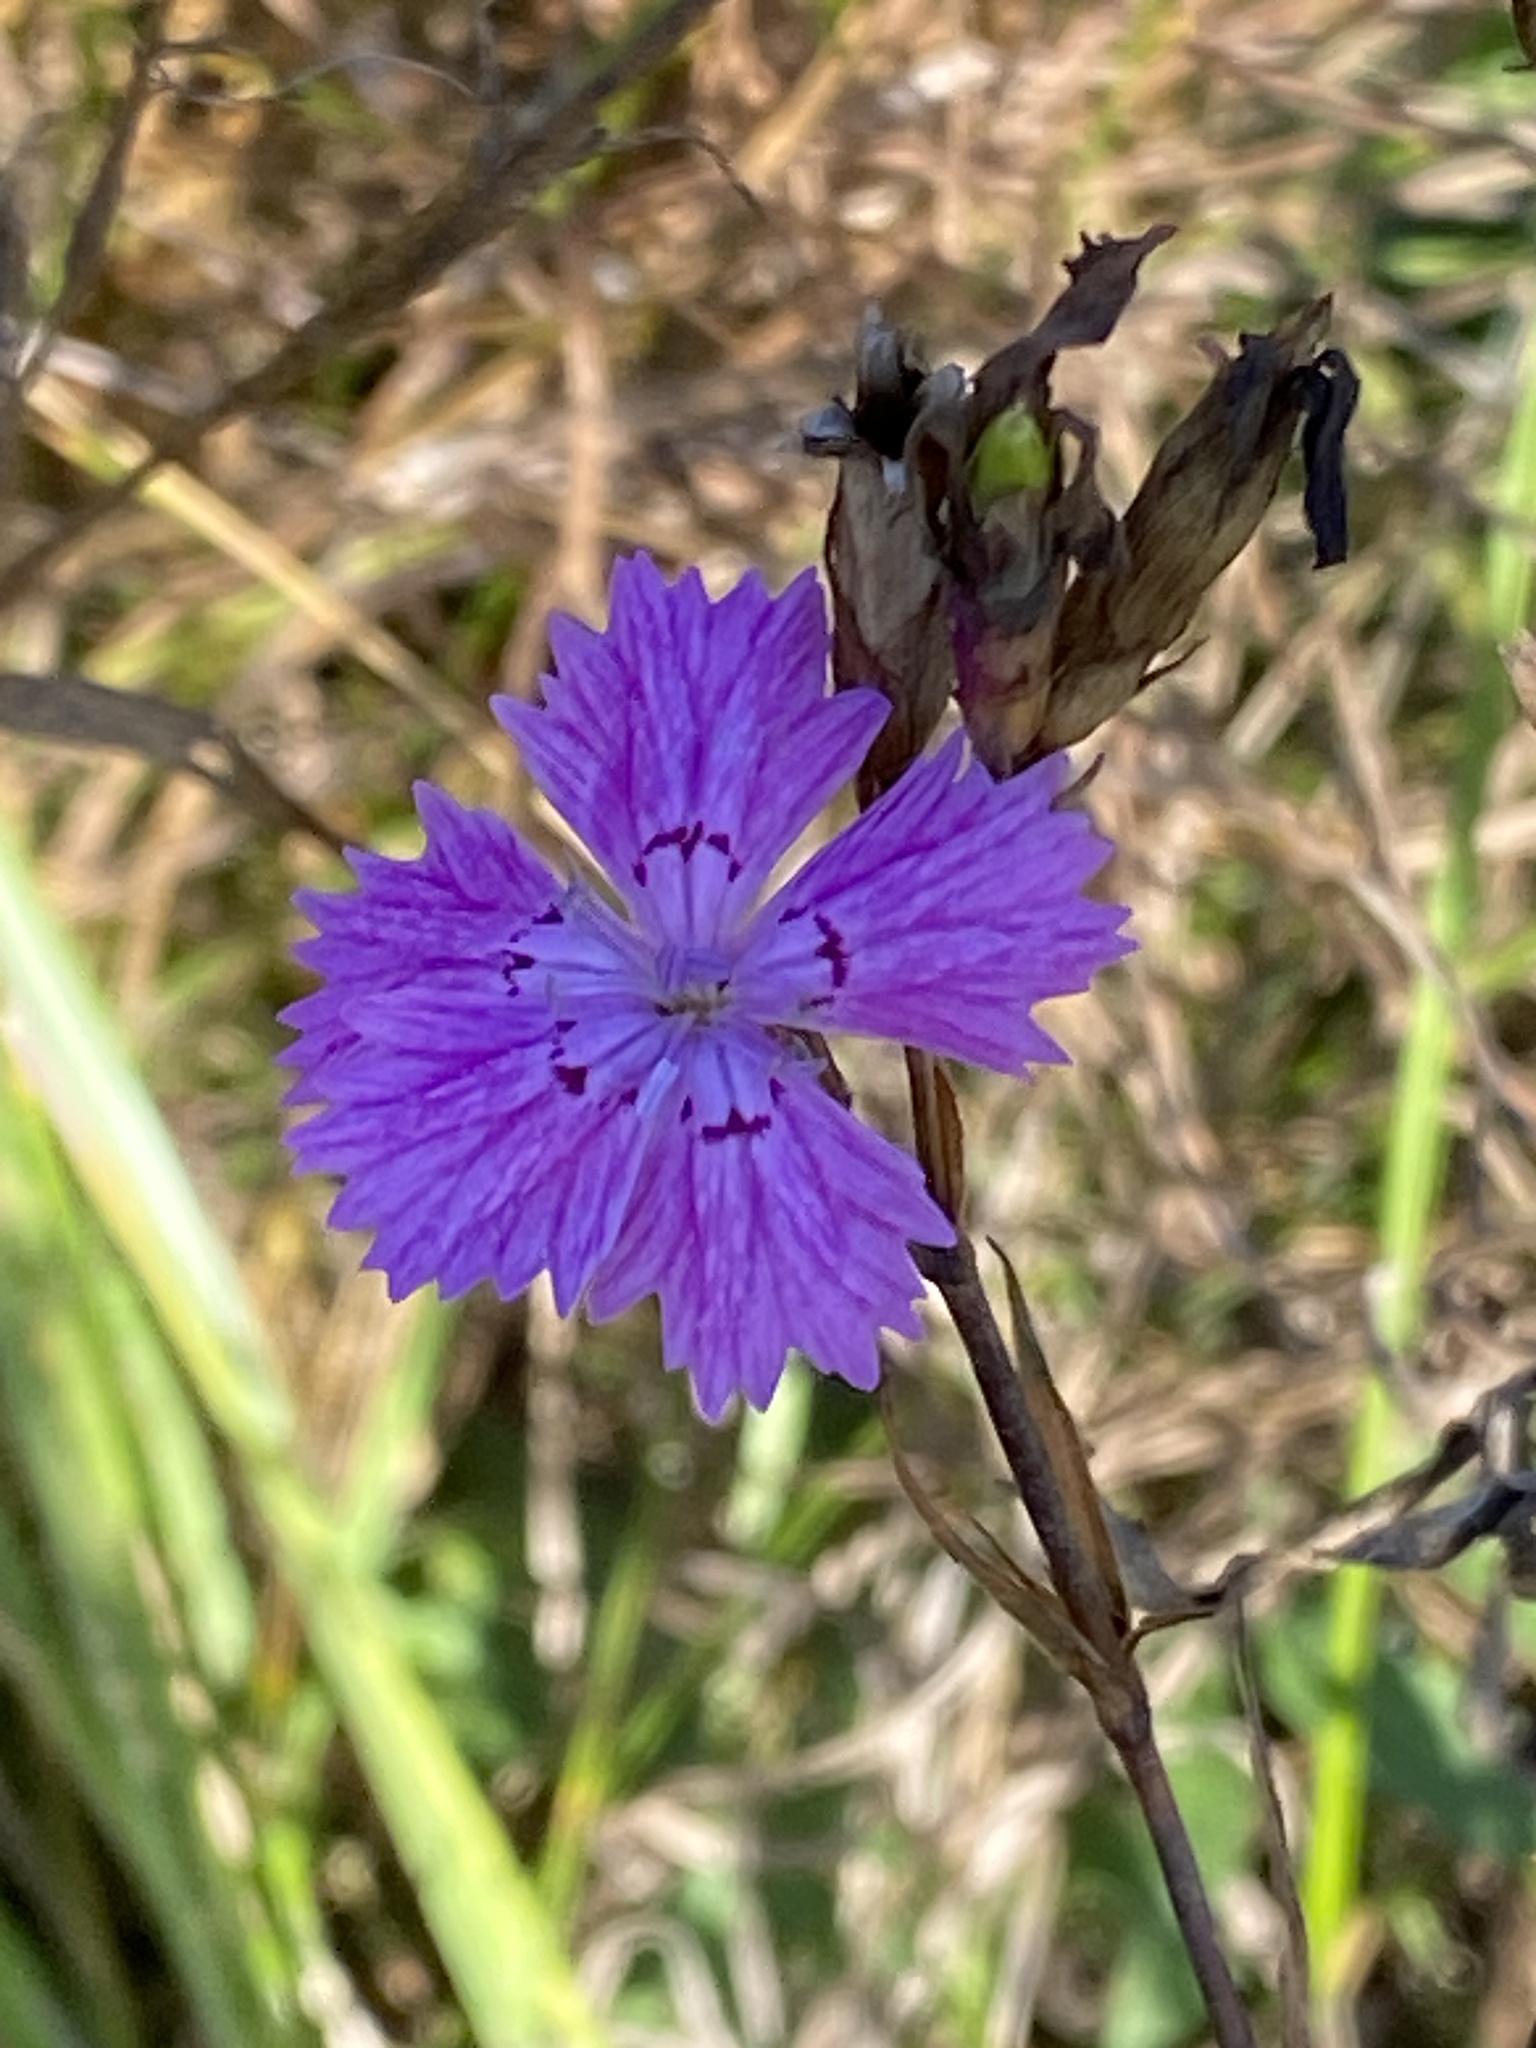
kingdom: Plantae
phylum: Tracheophyta
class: Magnoliopsida
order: Caryophyllales
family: Caryophyllaceae
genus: Dianthus
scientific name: Dianthus chinensis
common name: Rainbow pink
